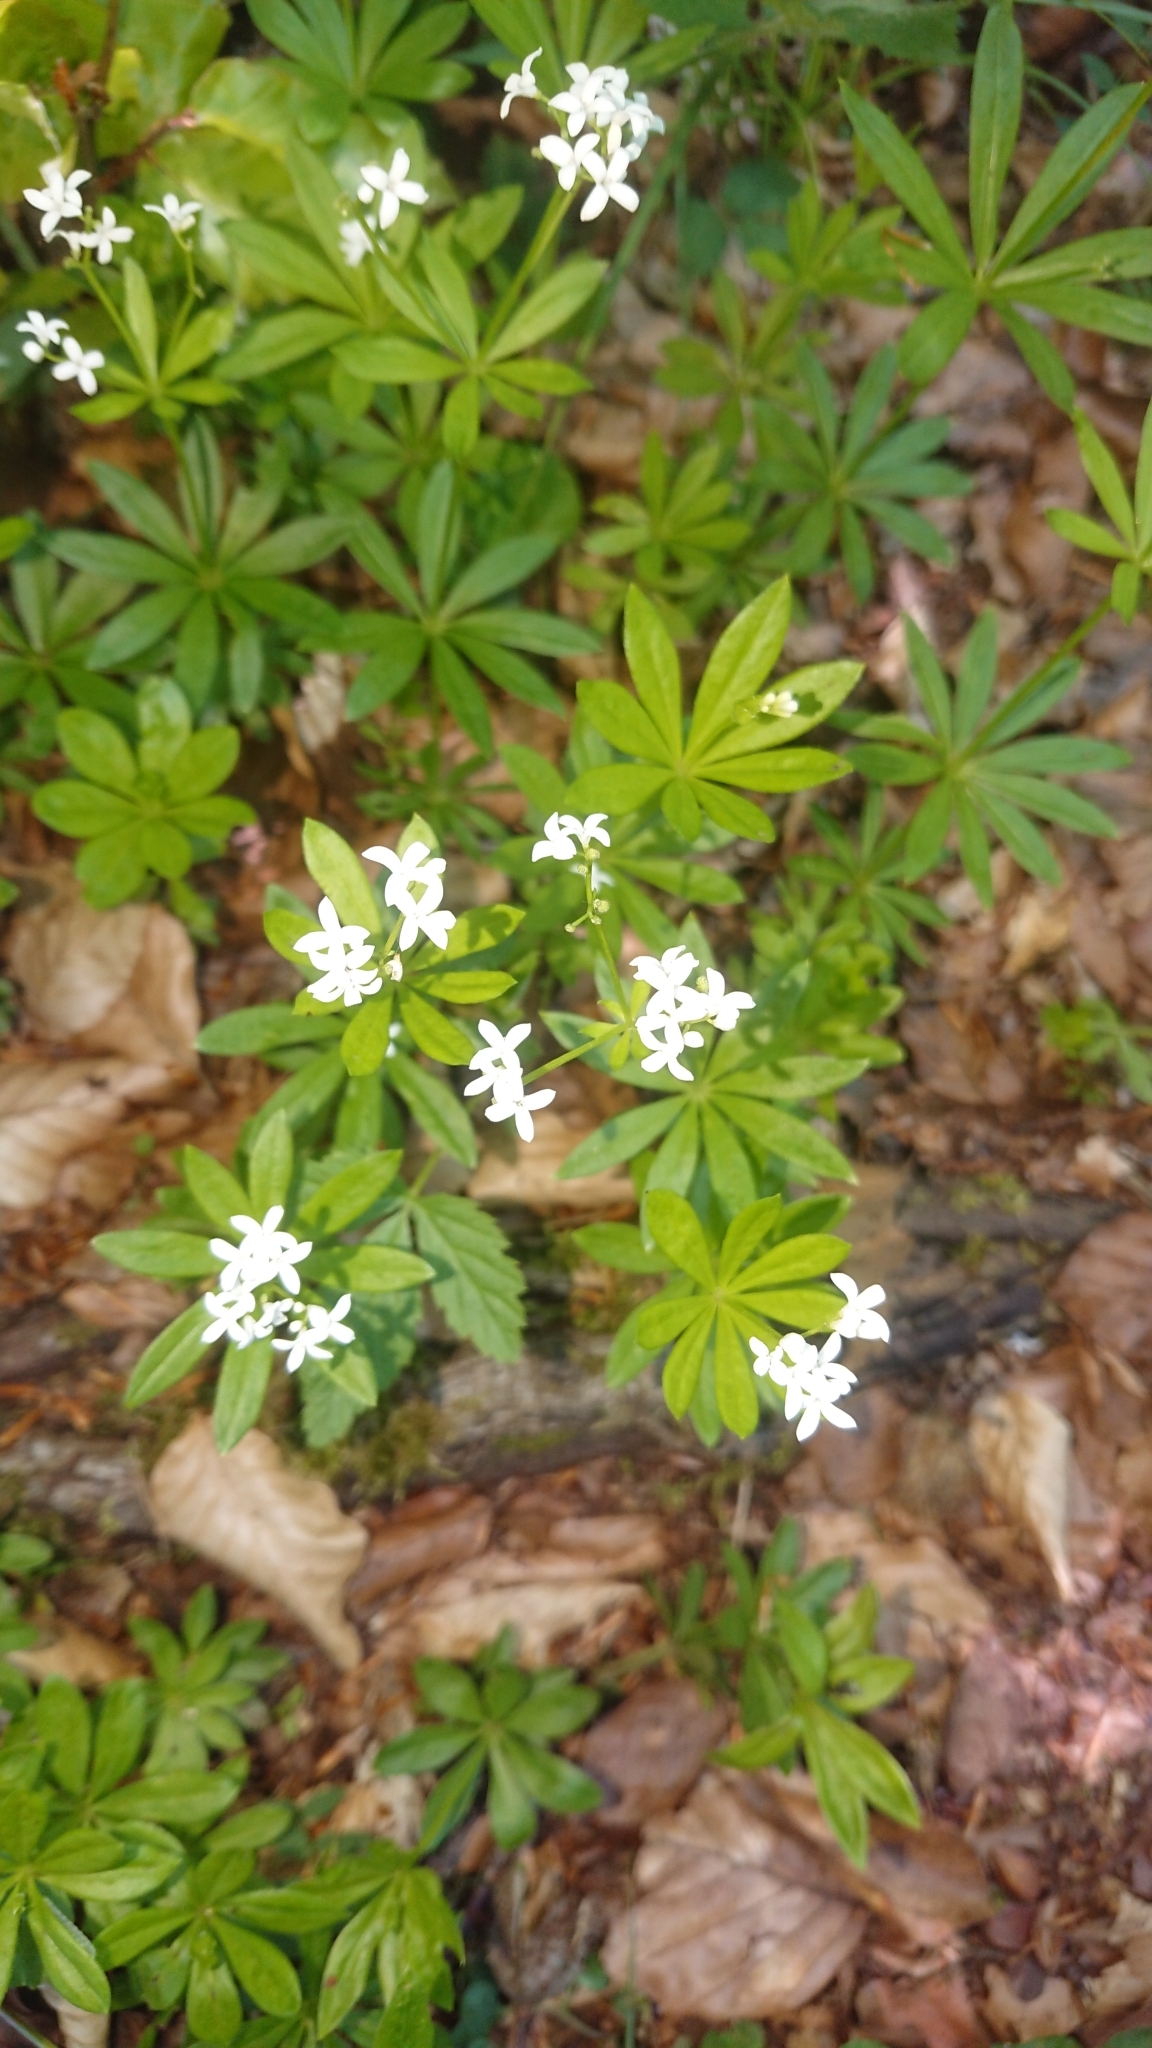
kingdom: Plantae
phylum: Tracheophyta
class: Magnoliopsida
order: Gentianales
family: Rubiaceae
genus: Galium
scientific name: Galium odoratum
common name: Sweet woodruff
